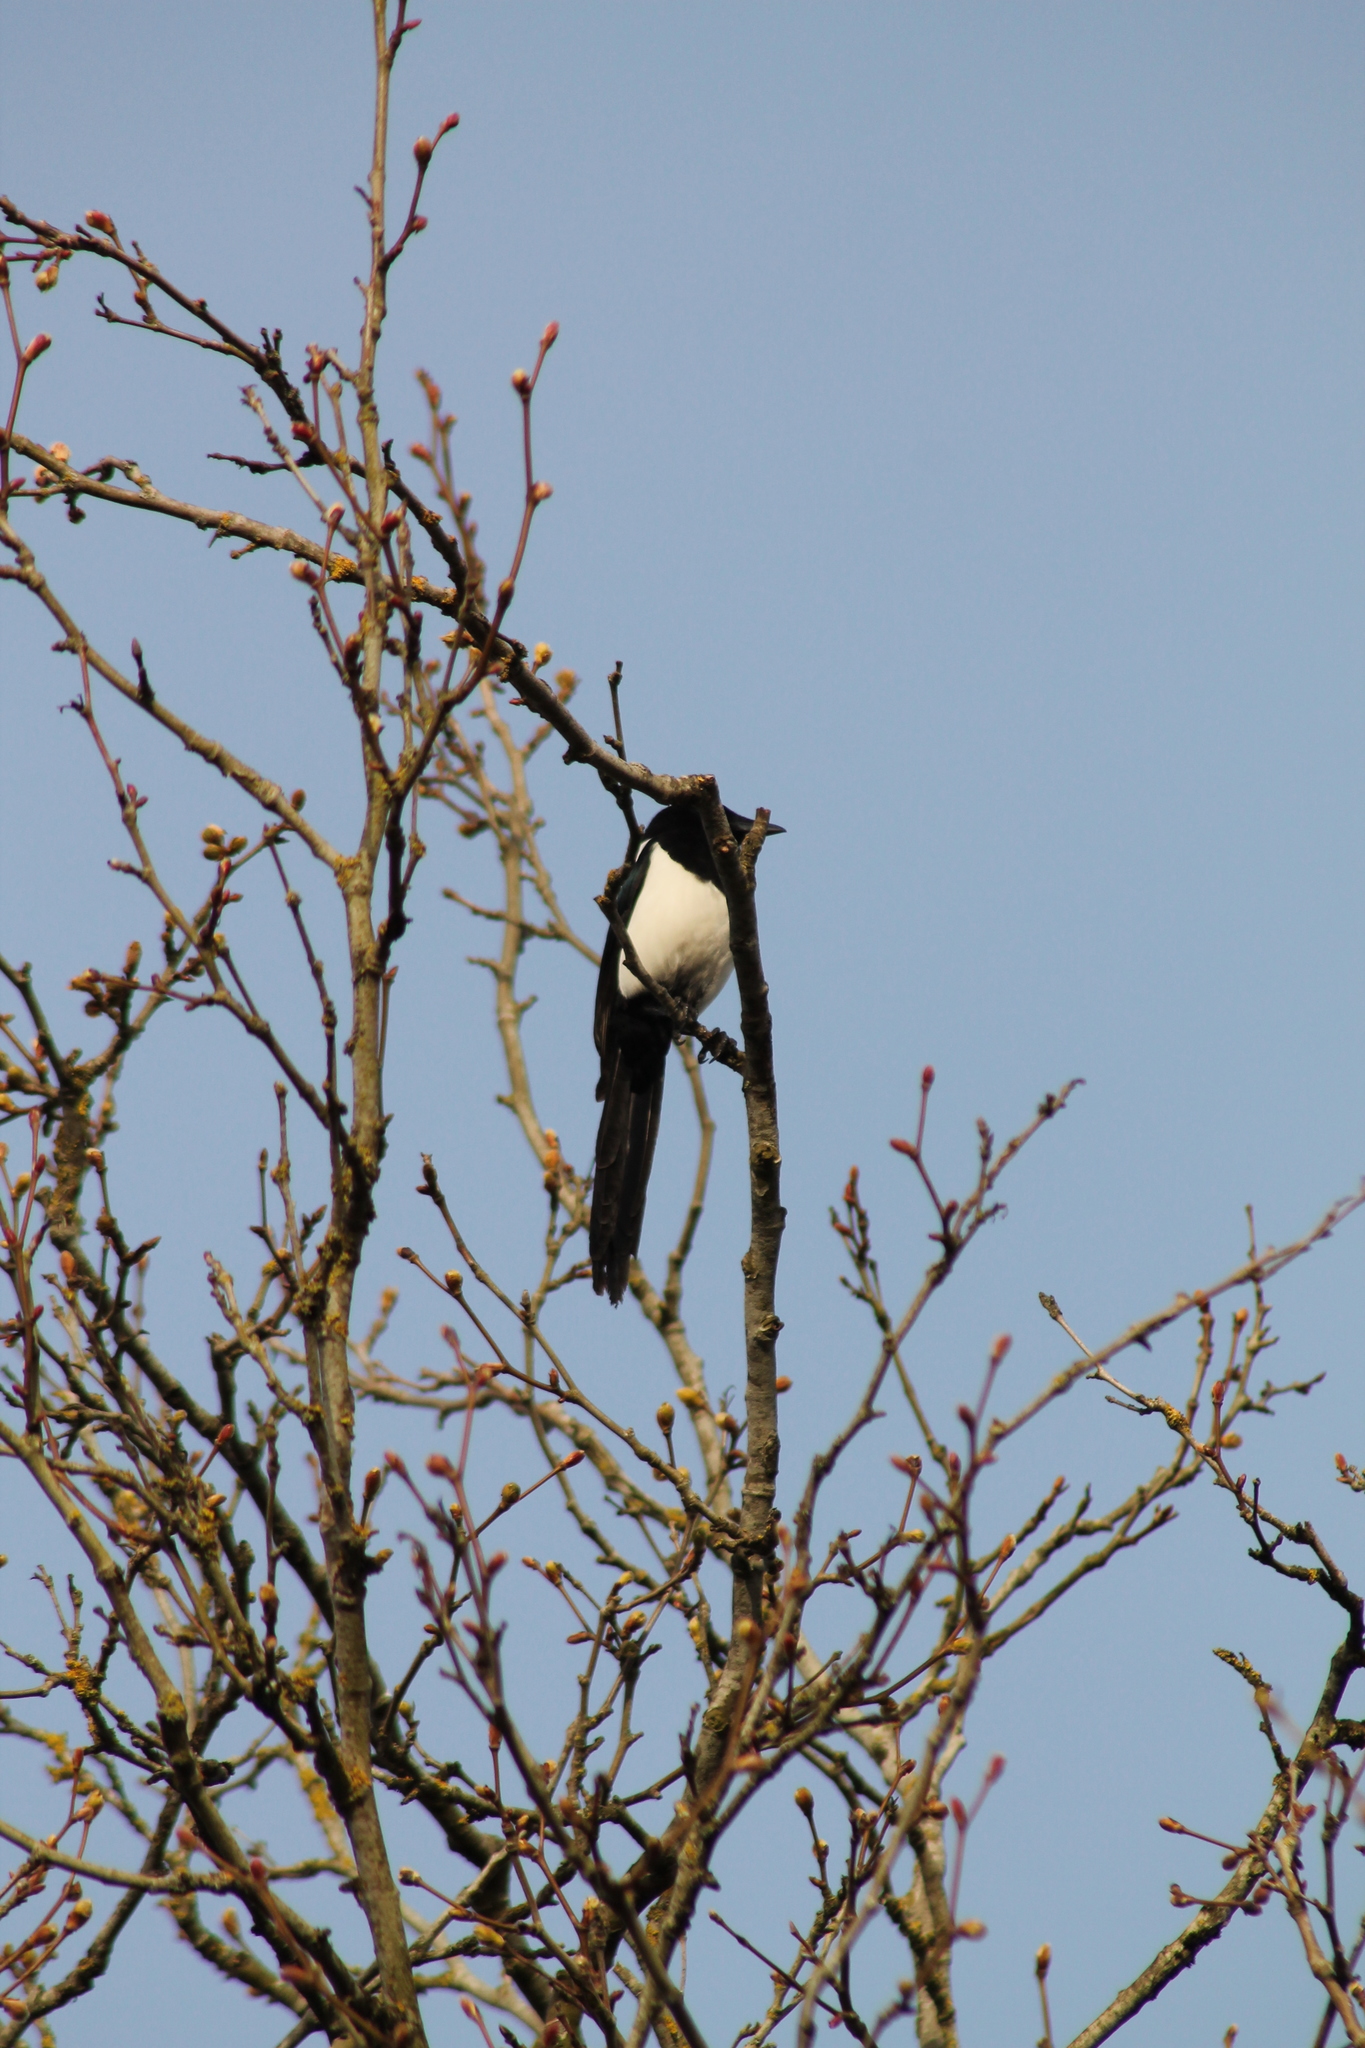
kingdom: Animalia
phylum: Chordata
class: Aves
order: Passeriformes
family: Corvidae
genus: Pica
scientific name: Pica pica
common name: Eurasian magpie
